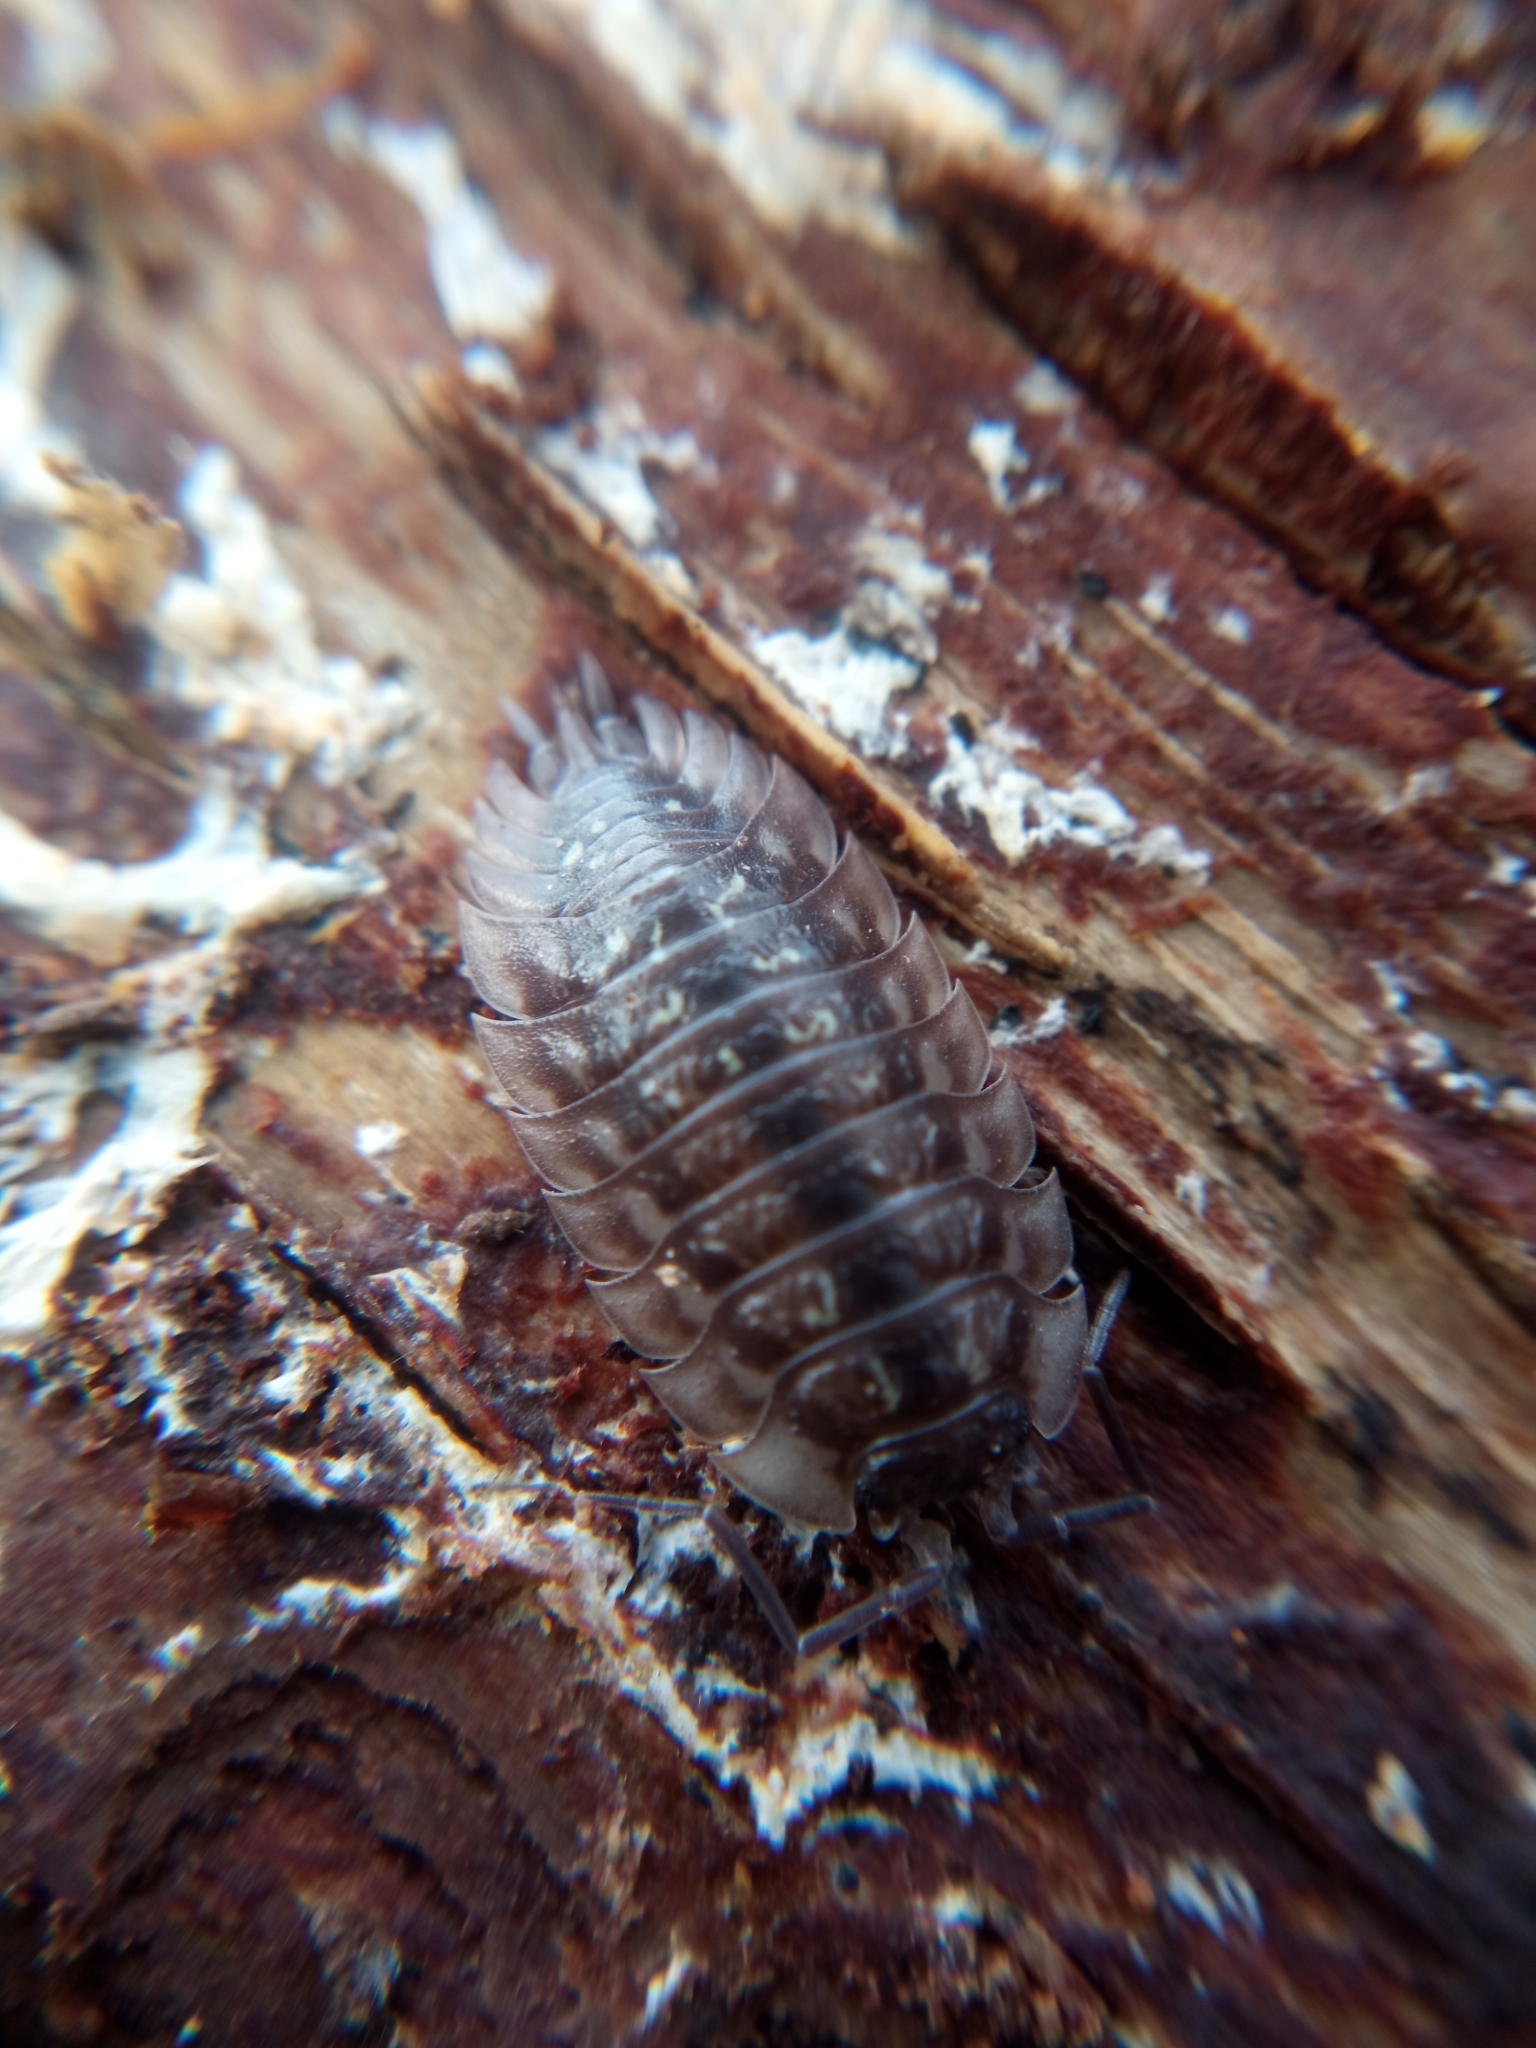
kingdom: Animalia
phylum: Arthropoda
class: Malacostraca
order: Isopoda
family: Oniscidae
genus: Oniscus
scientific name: Oniscus asellus
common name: Common shiny woodlouse
